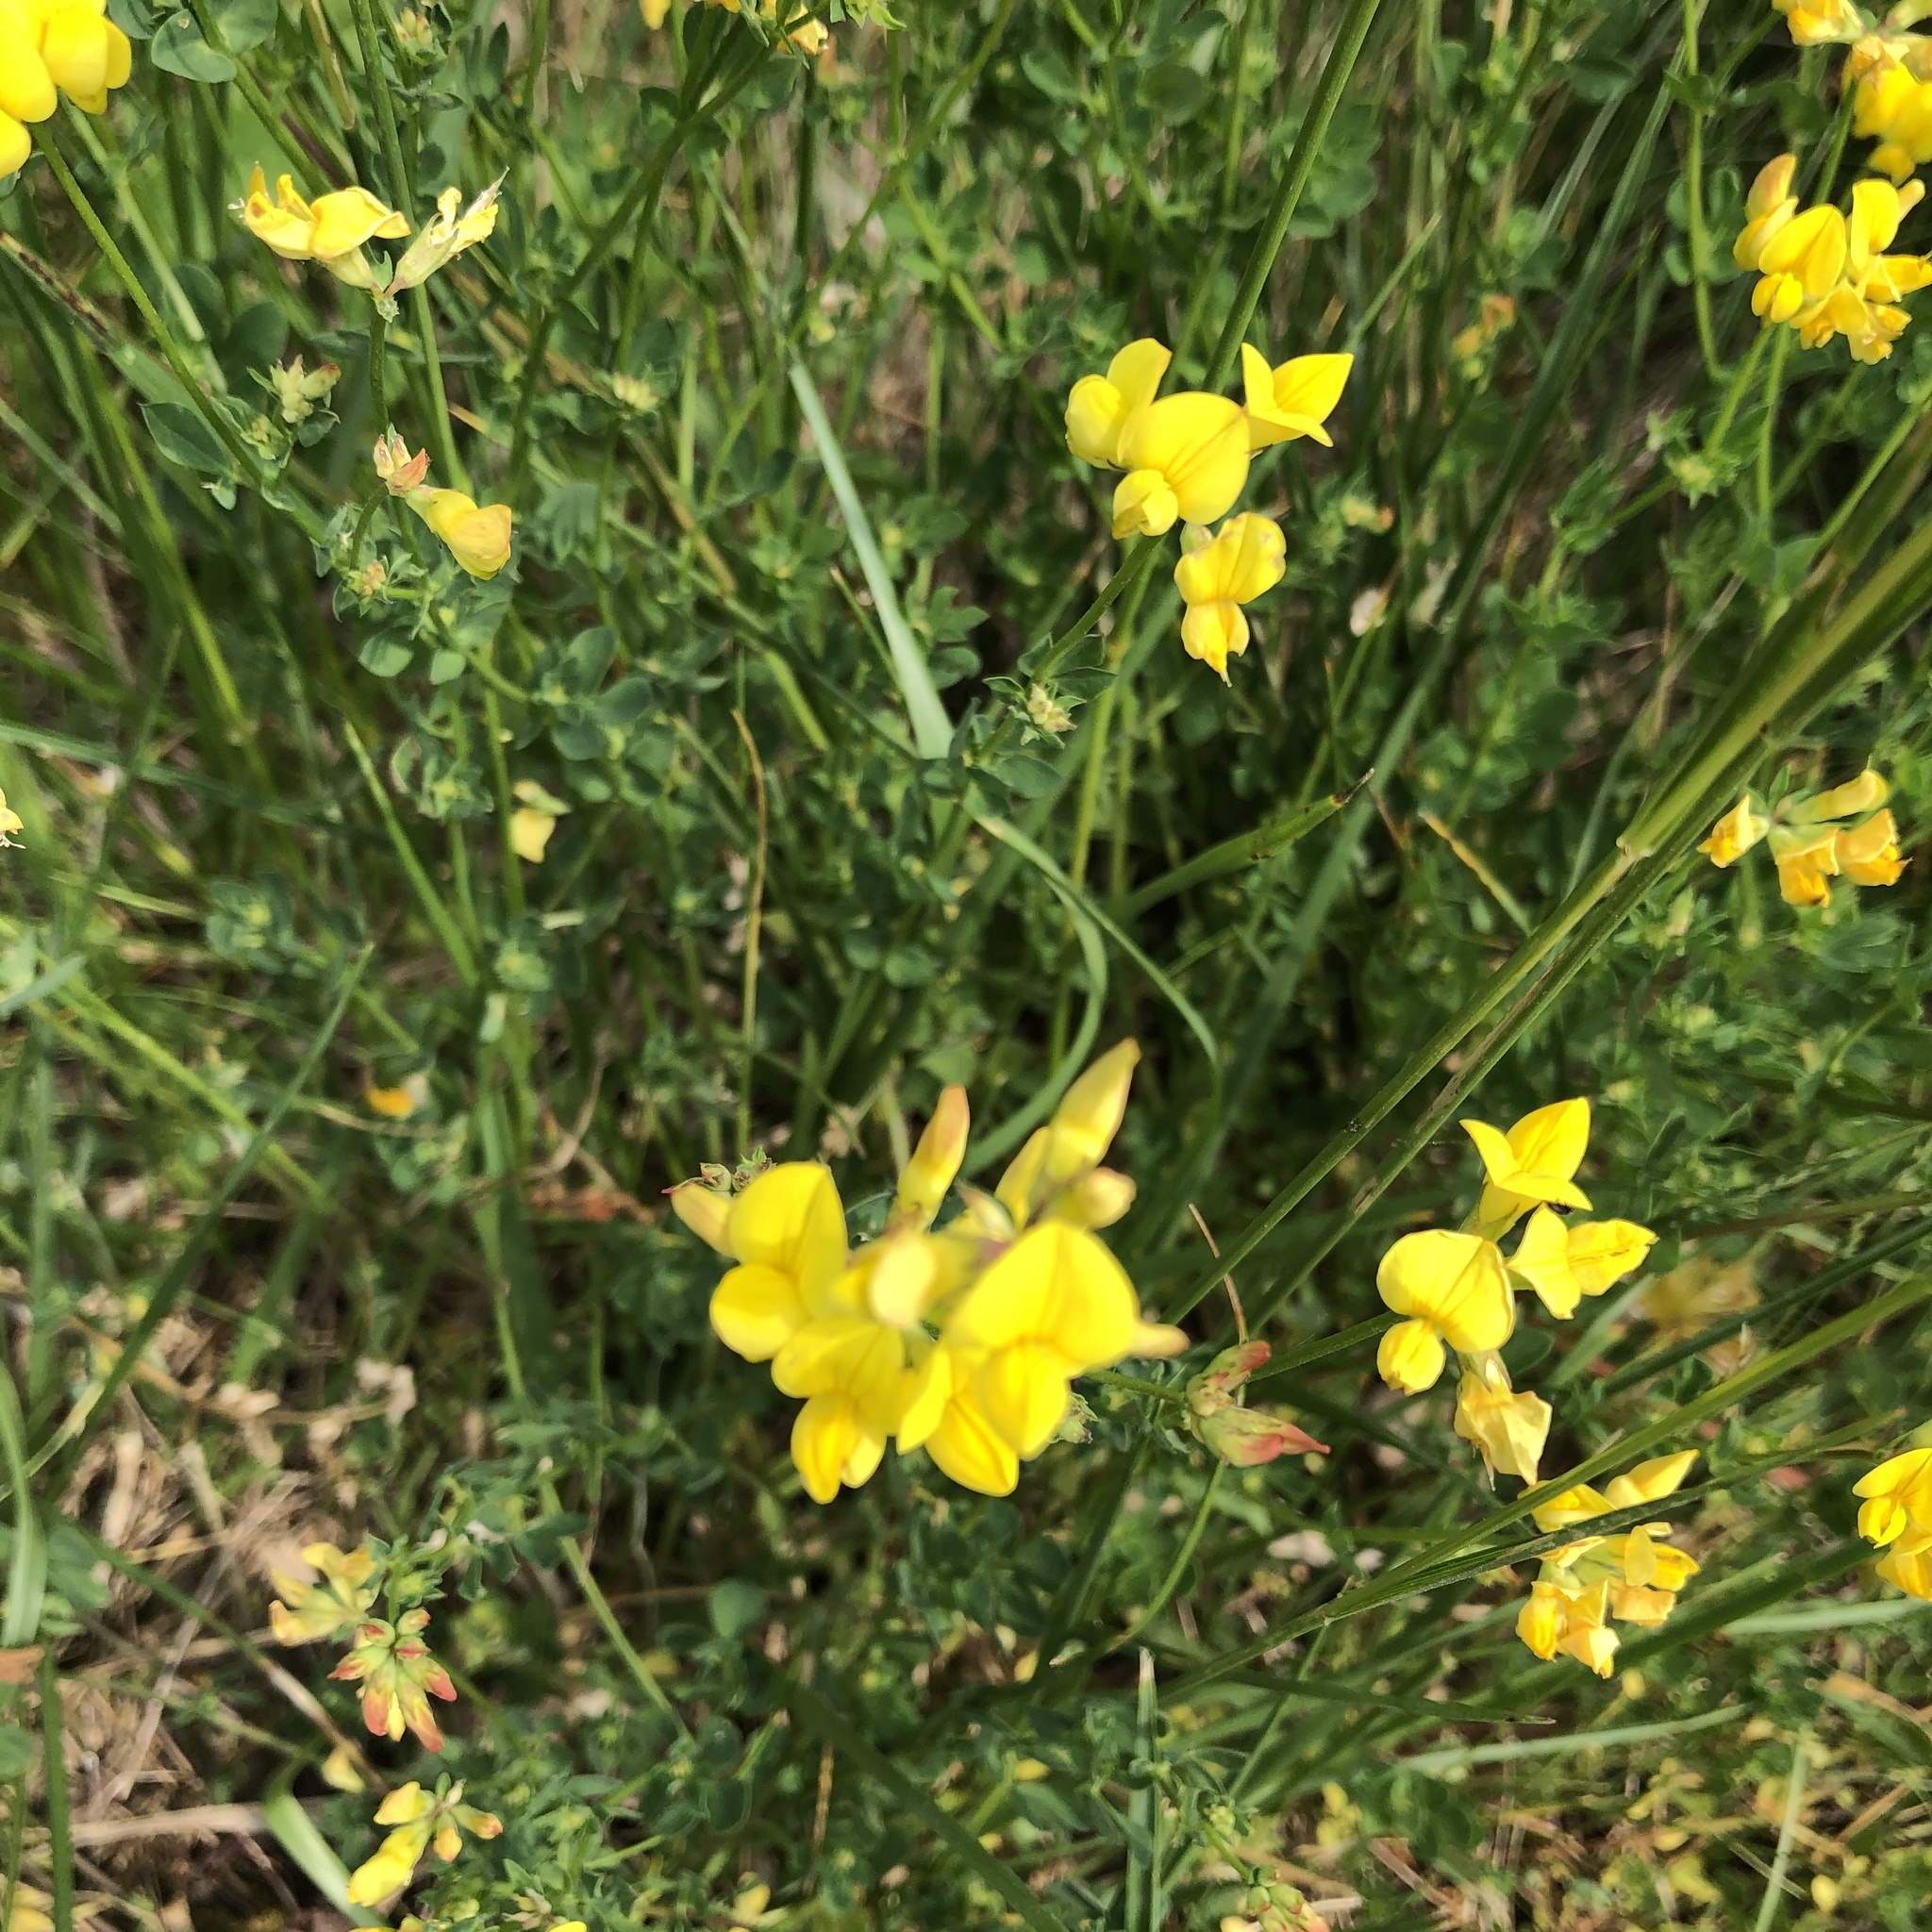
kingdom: Plantae
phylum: Tracheophyta
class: Magnoliopsida
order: Fabales
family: Fabaceae
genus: Lotus
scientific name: Lotus corniculatus
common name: Common bird's-foot-trefoil
